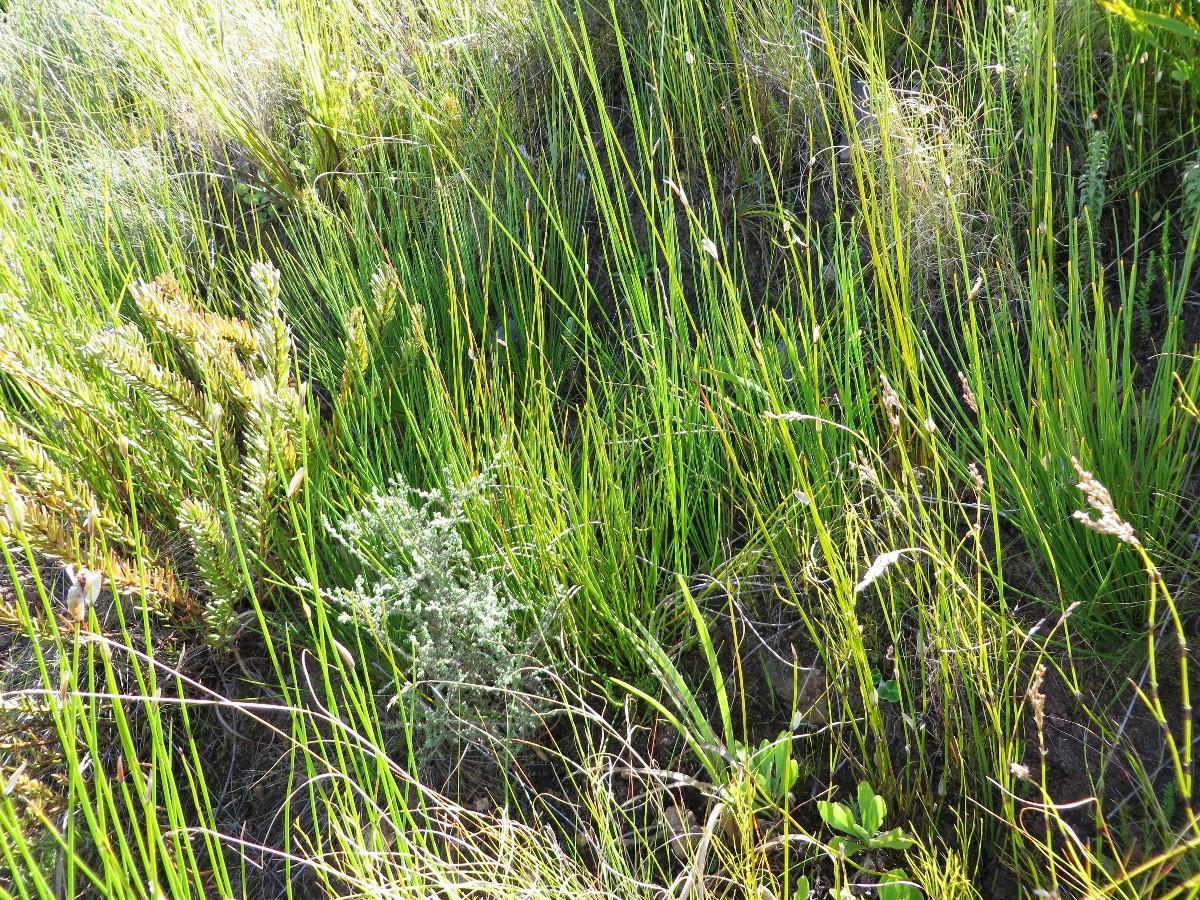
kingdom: Plantae
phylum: Tracheophyta
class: Magnoliopsida
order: Proteales
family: Proteaceae
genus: Protea
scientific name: Protea lorea
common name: Thong-leaf sugarbush
